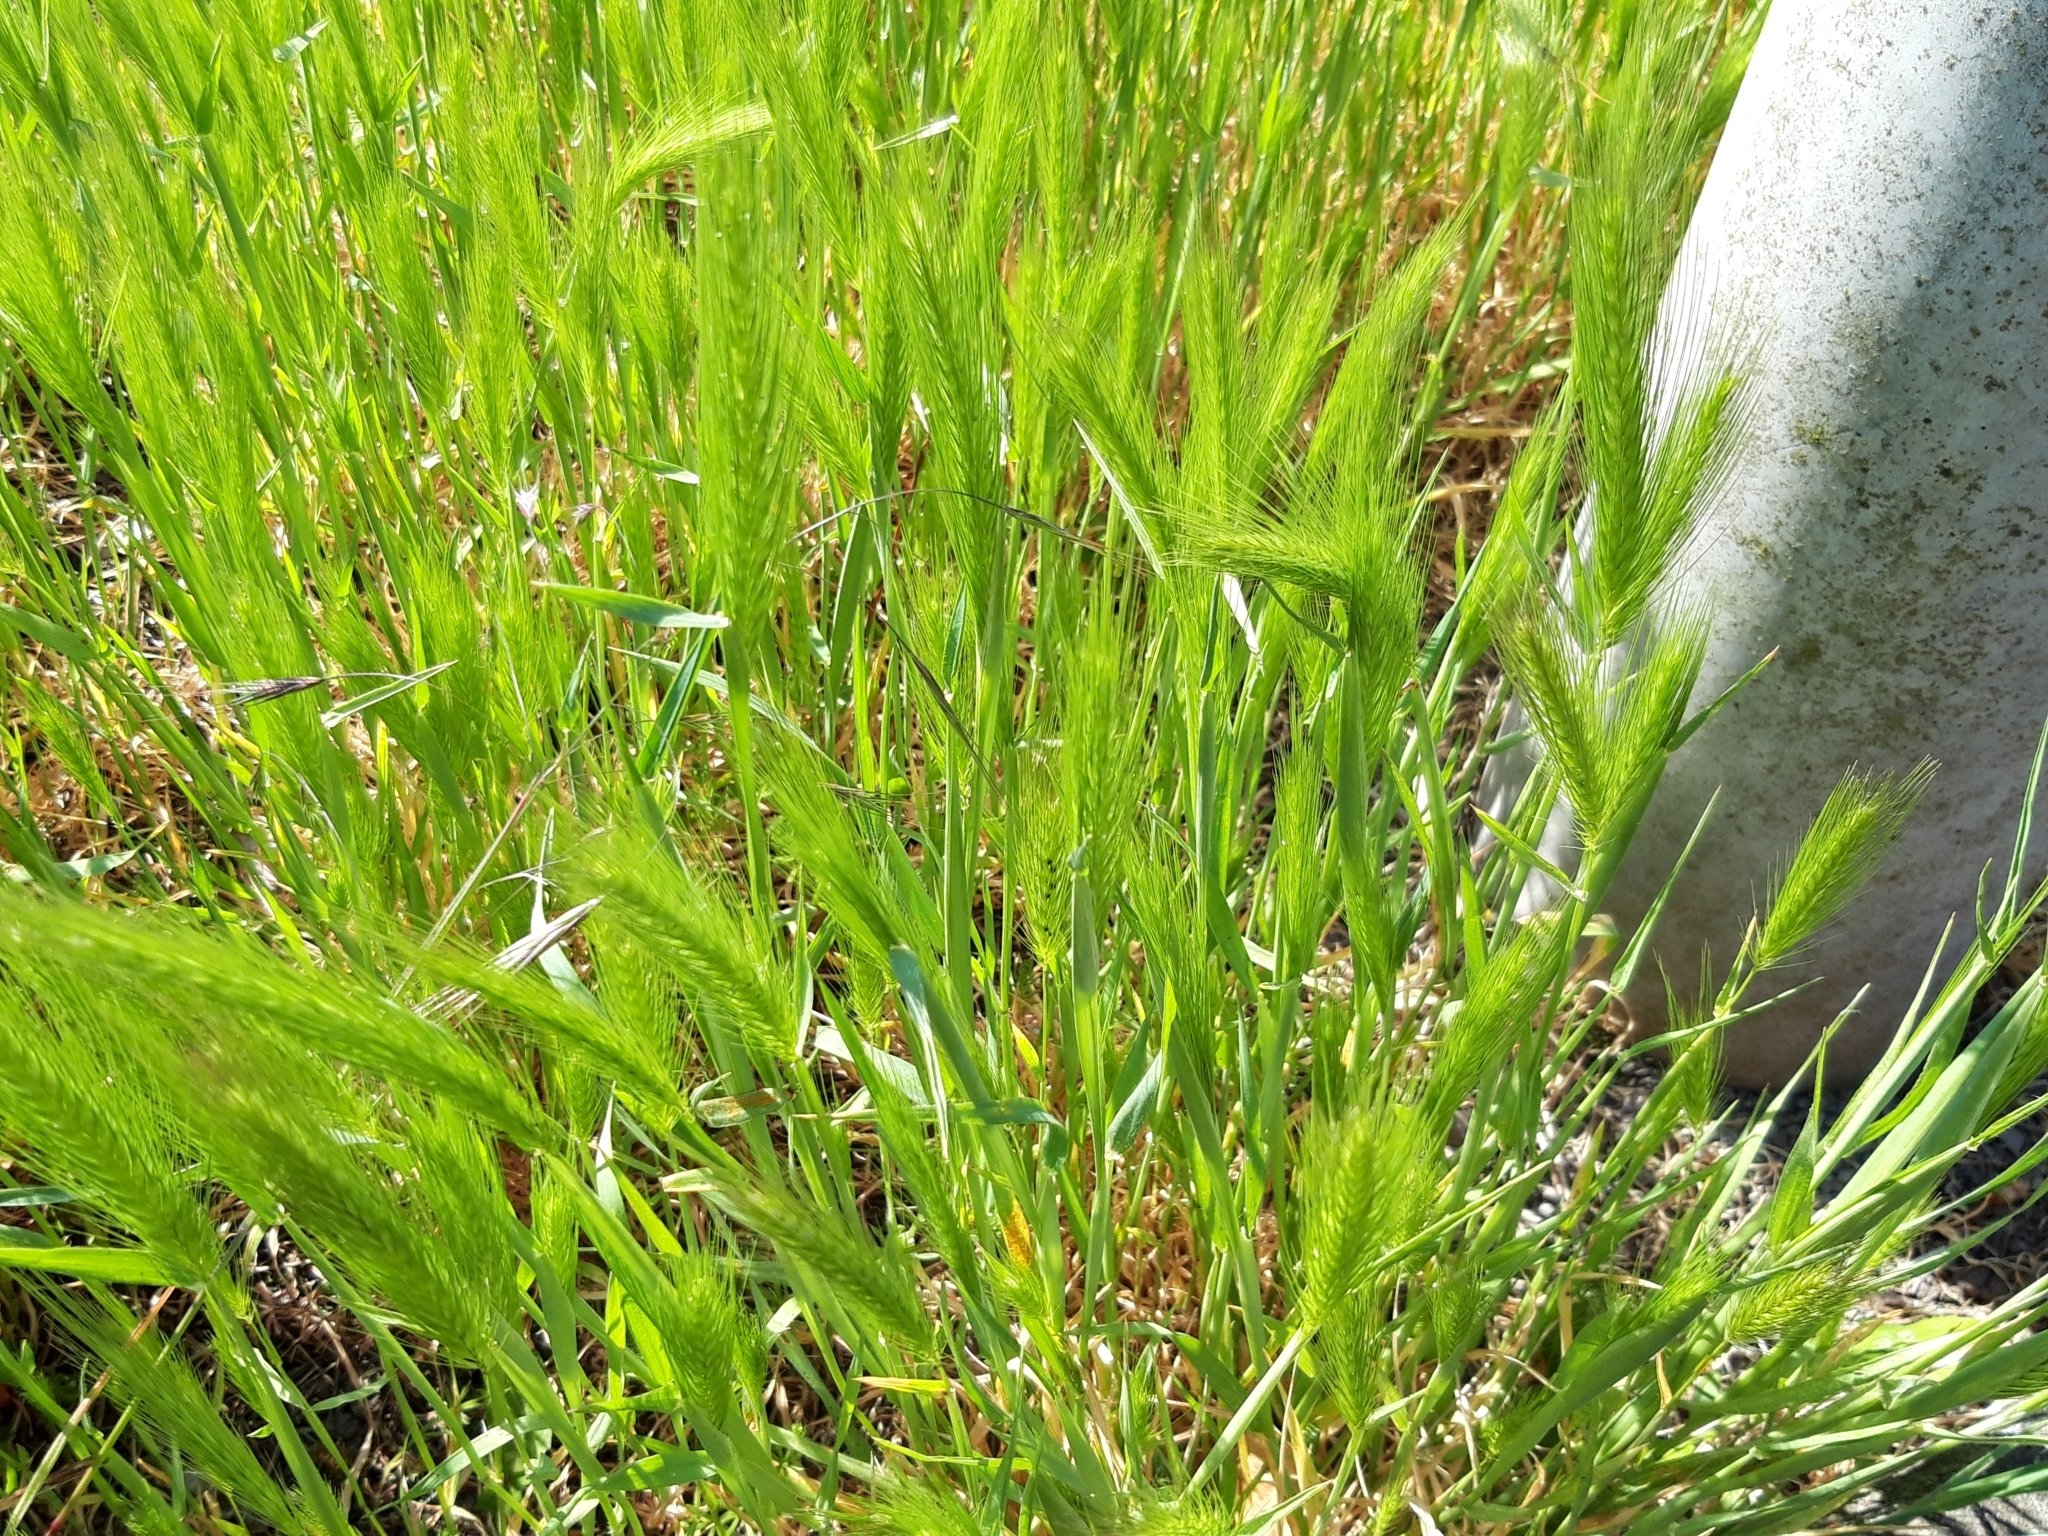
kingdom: Plantae
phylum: Tracheophyta
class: Liliopsida
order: Poales
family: Poaceae
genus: Hordeum
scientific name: Hordeum murinum
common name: Wall barley
